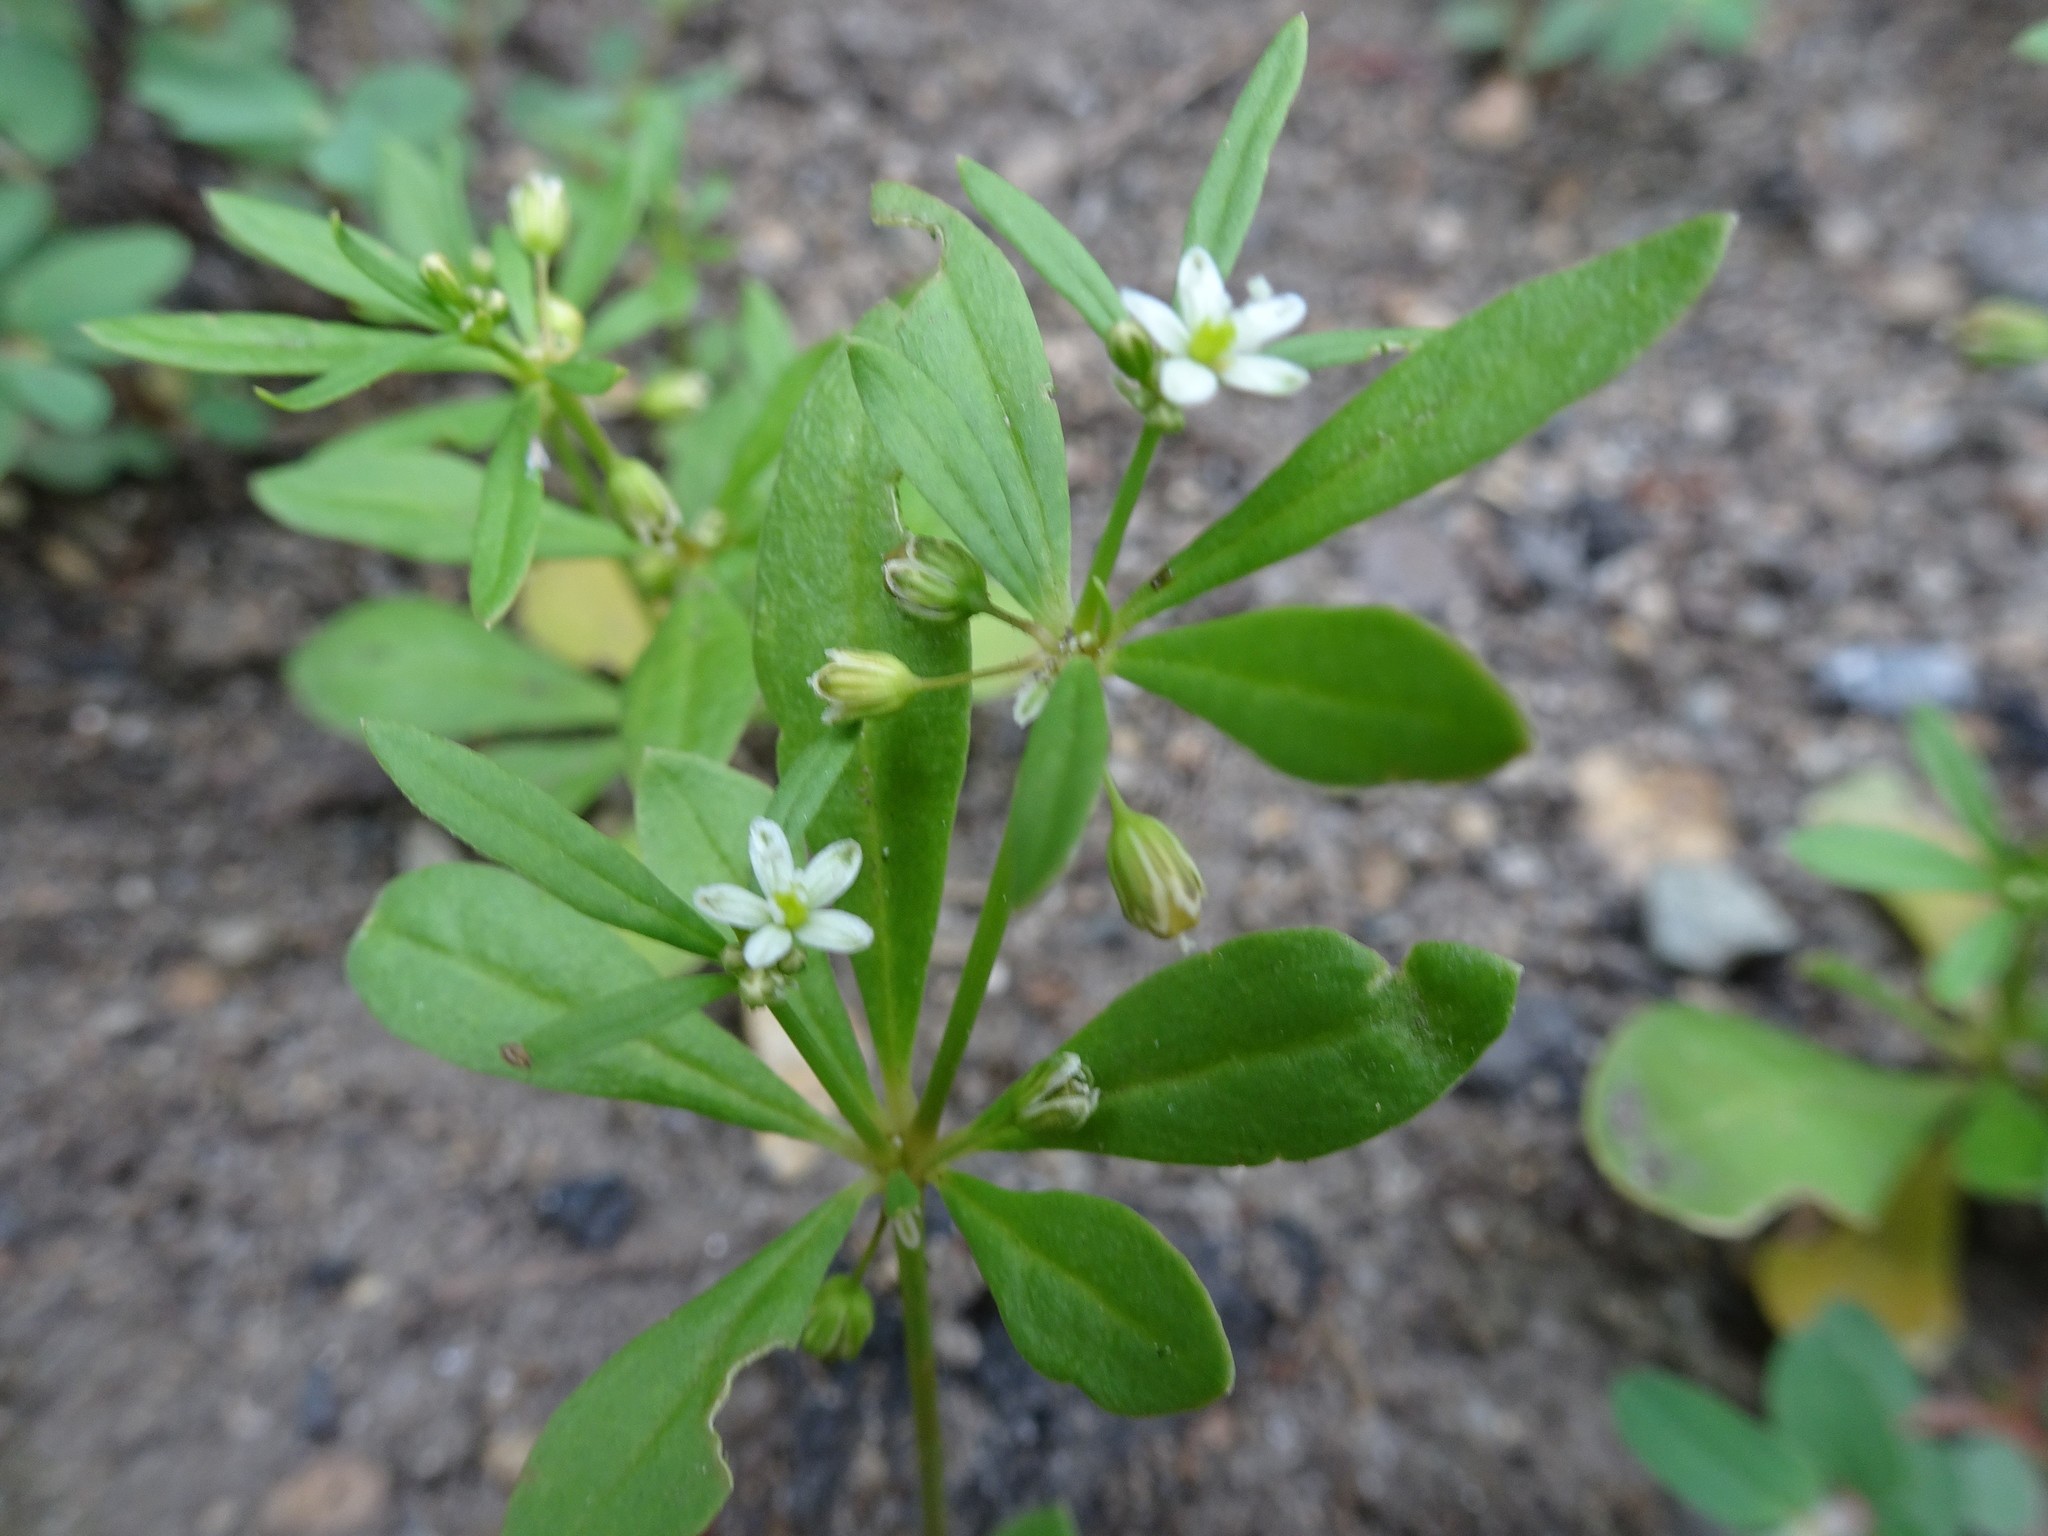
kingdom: Plantae
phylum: Tracheophyta
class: Magnoliopsida
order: Caryophyllales
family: Molluginaceae
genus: Mollugo
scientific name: Mollugo verticillata
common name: Green carpetweed
